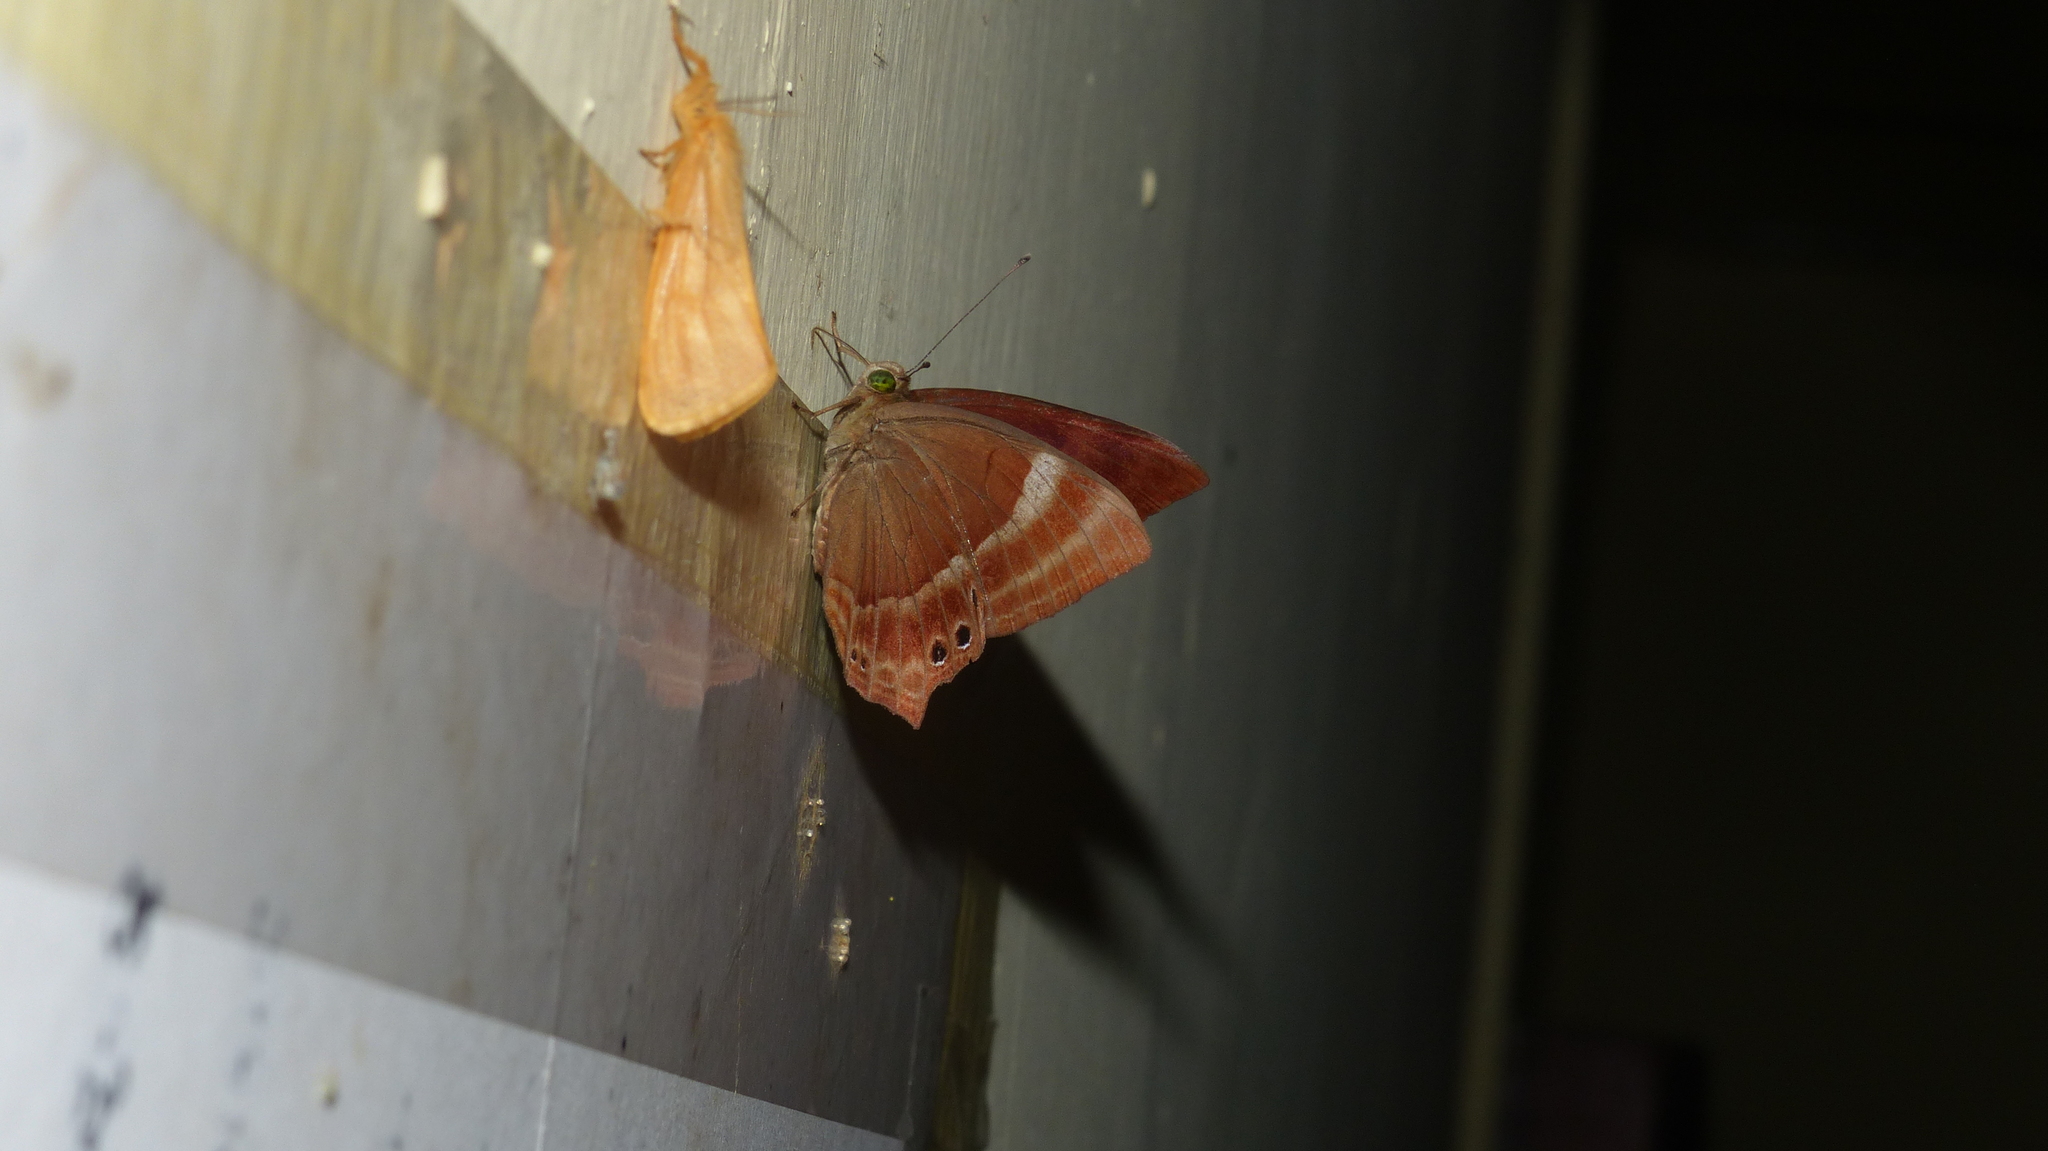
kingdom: Animalia
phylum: Arthropoda
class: Insecta
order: Lepidoptera
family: Lycaenidae
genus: Abisara
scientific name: Abisara bifasciata
